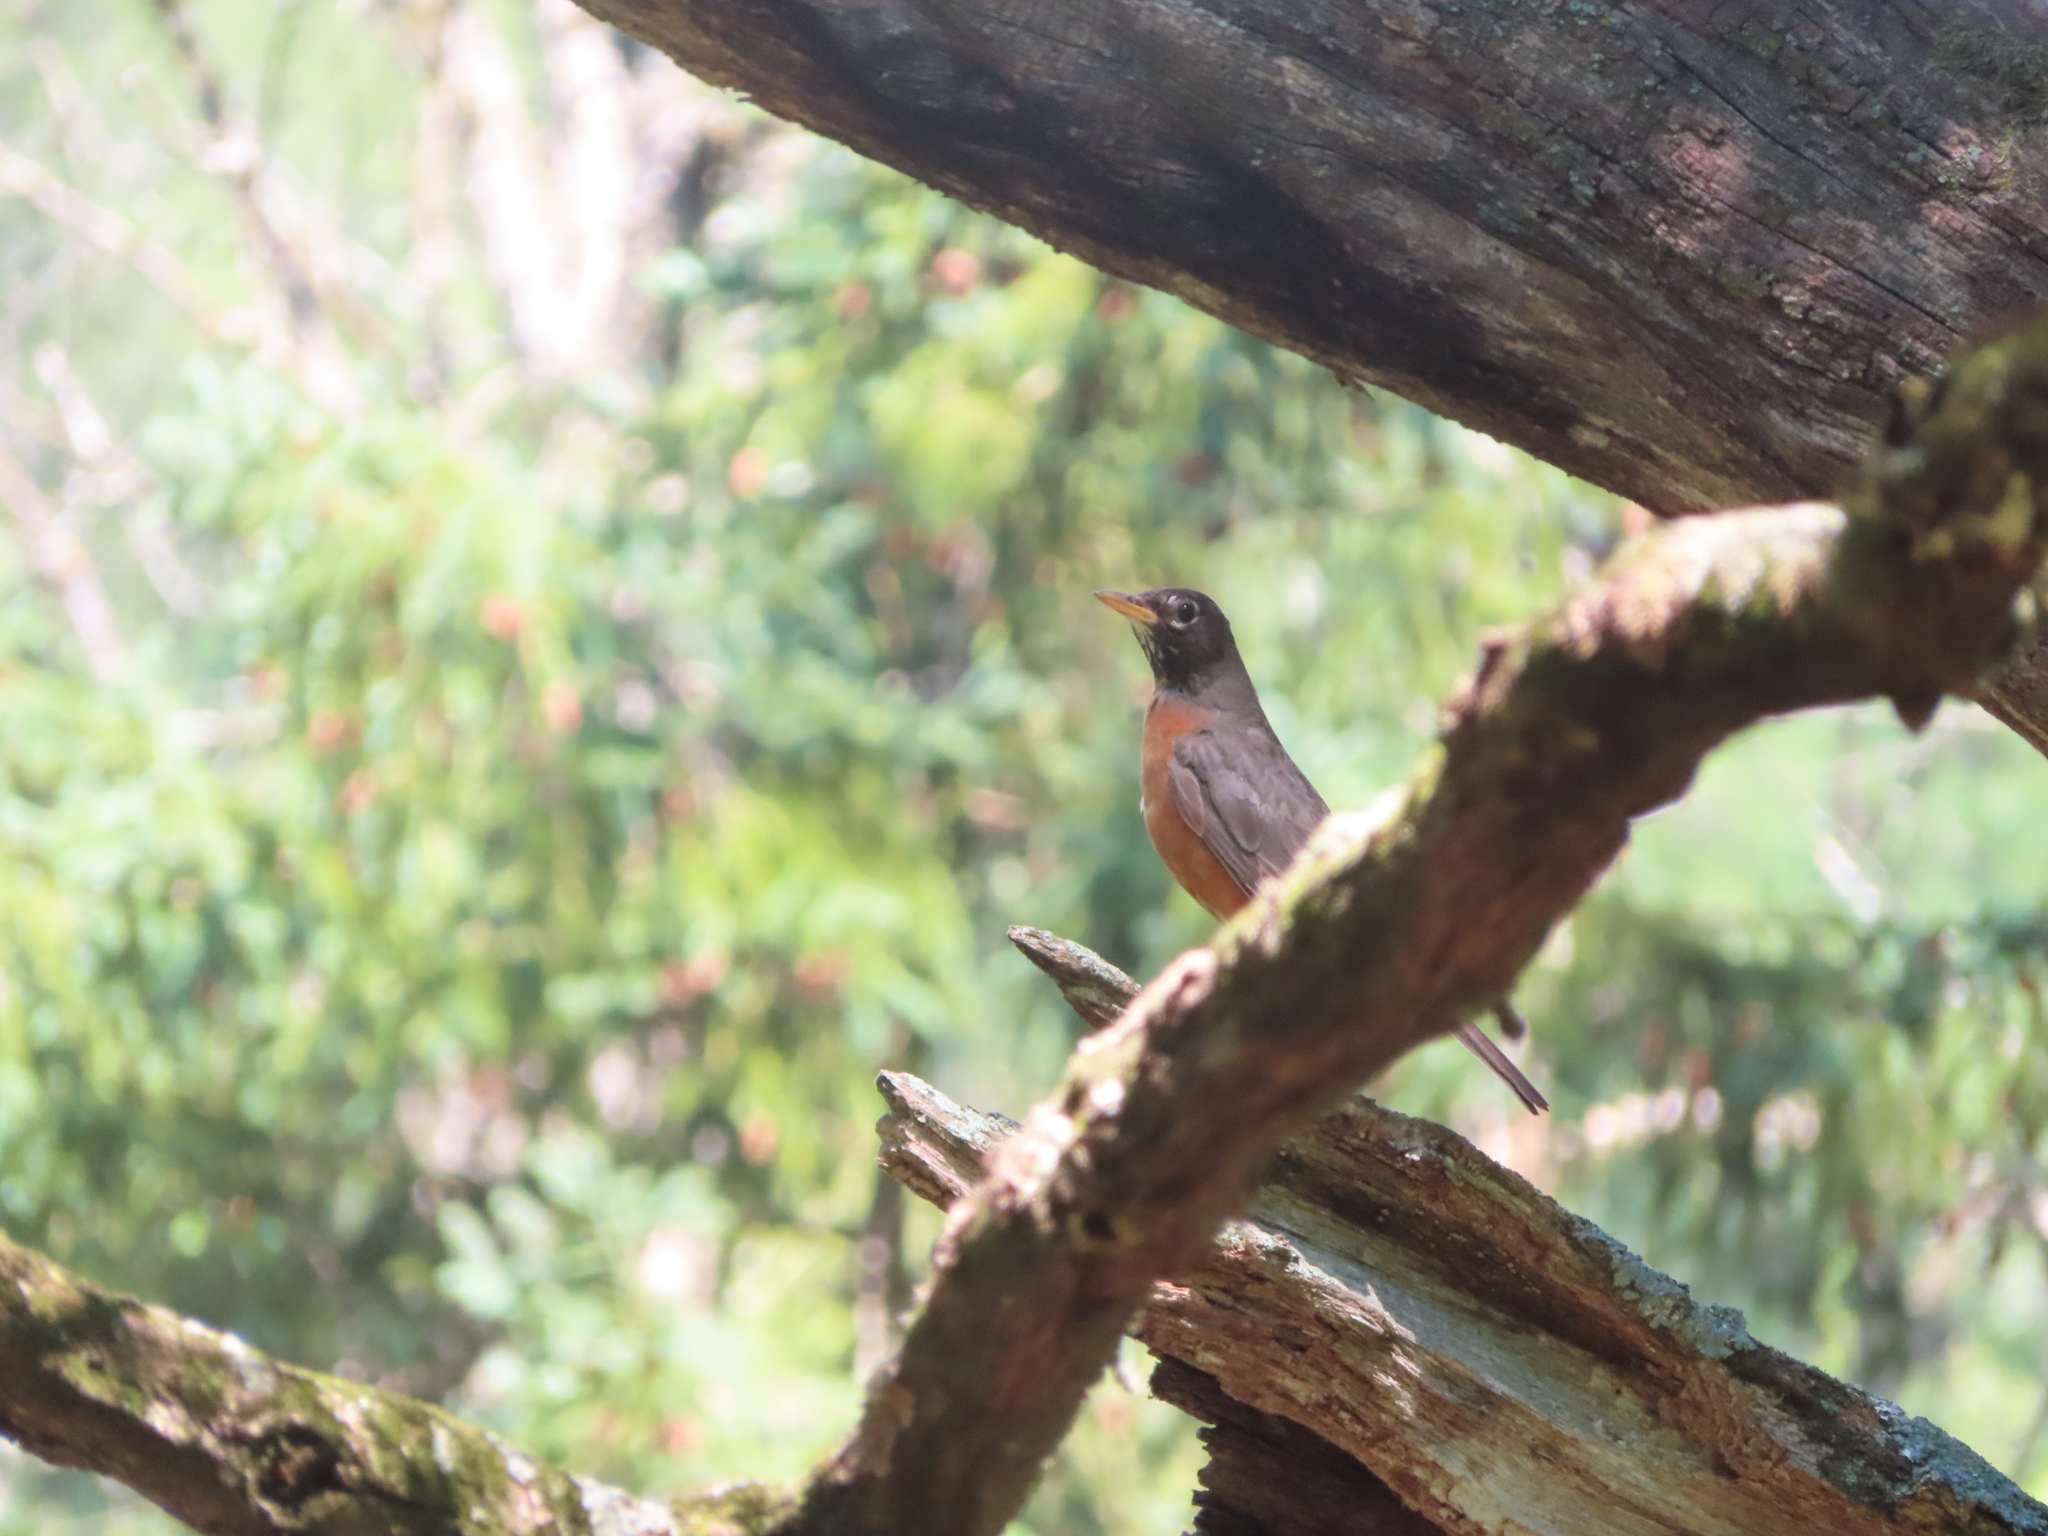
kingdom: Animalia
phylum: Chordata
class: Aves
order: Passeriformes
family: Turdidae
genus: Turdus
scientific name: Turdus migratorius
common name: American robin
